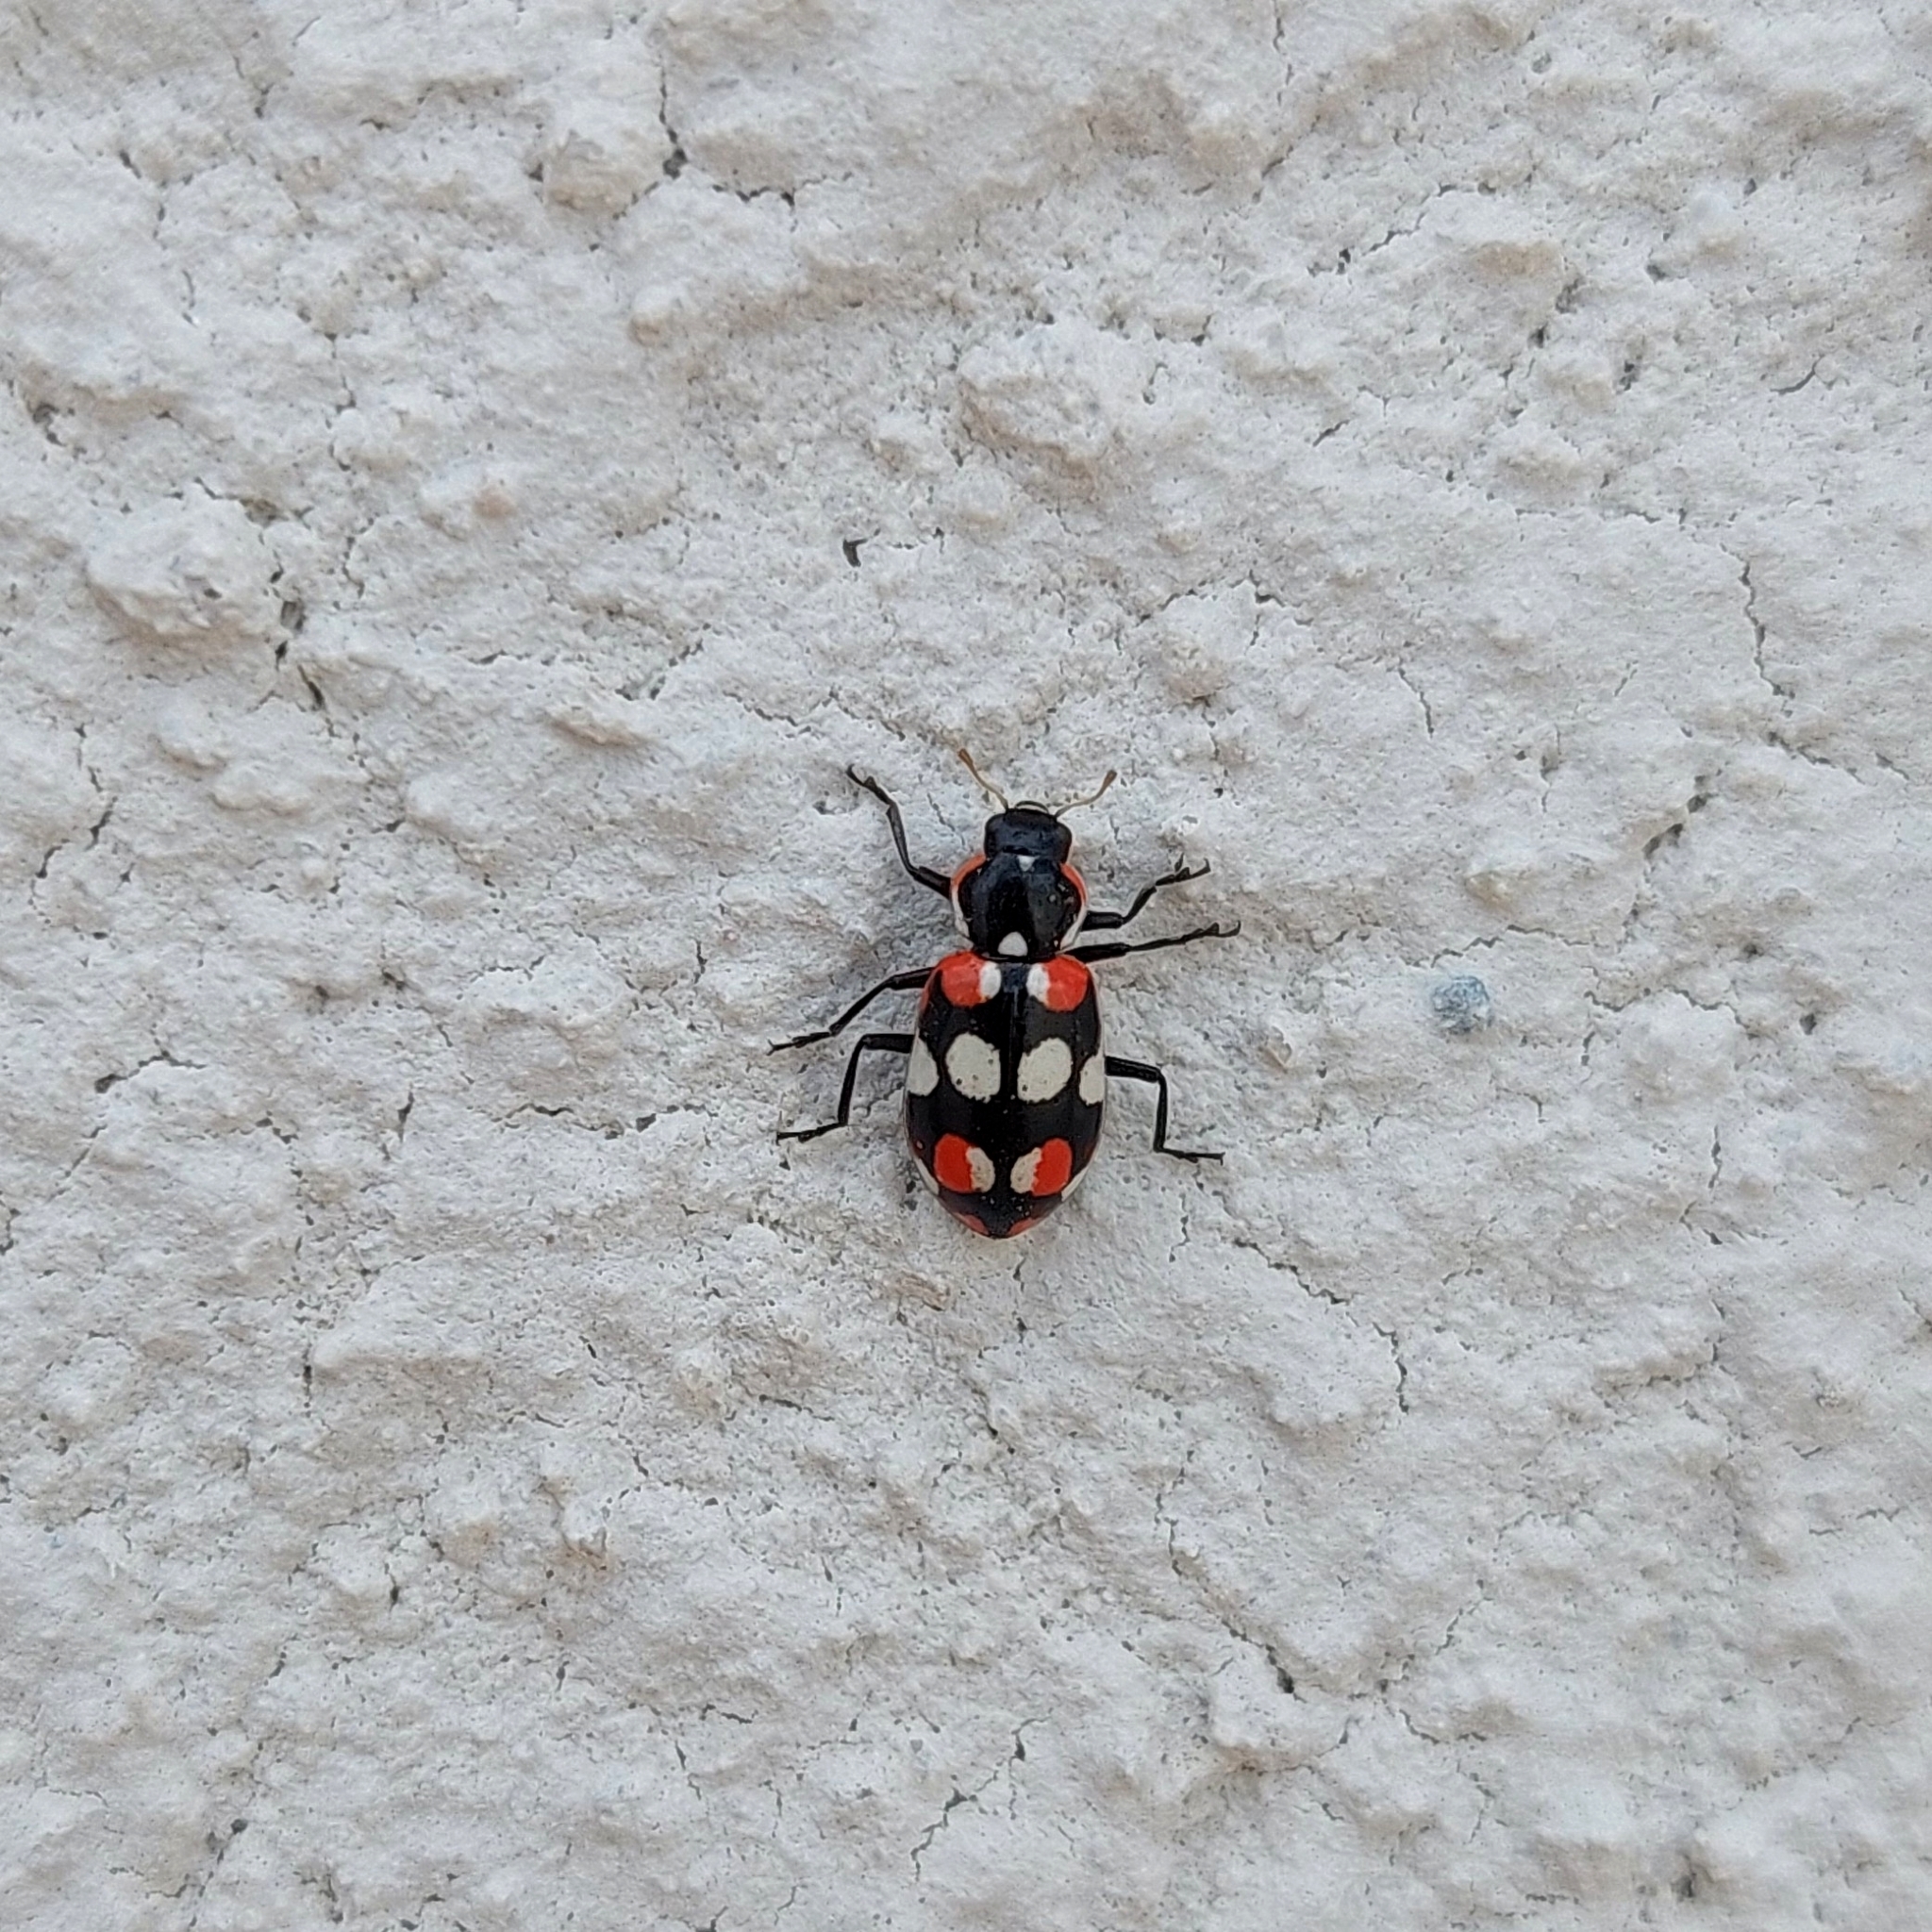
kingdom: Animalia
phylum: Arthropoda
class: Insecta
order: Coleoptera
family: Coccinellidae
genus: Eriopis
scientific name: Eriopis connexa
